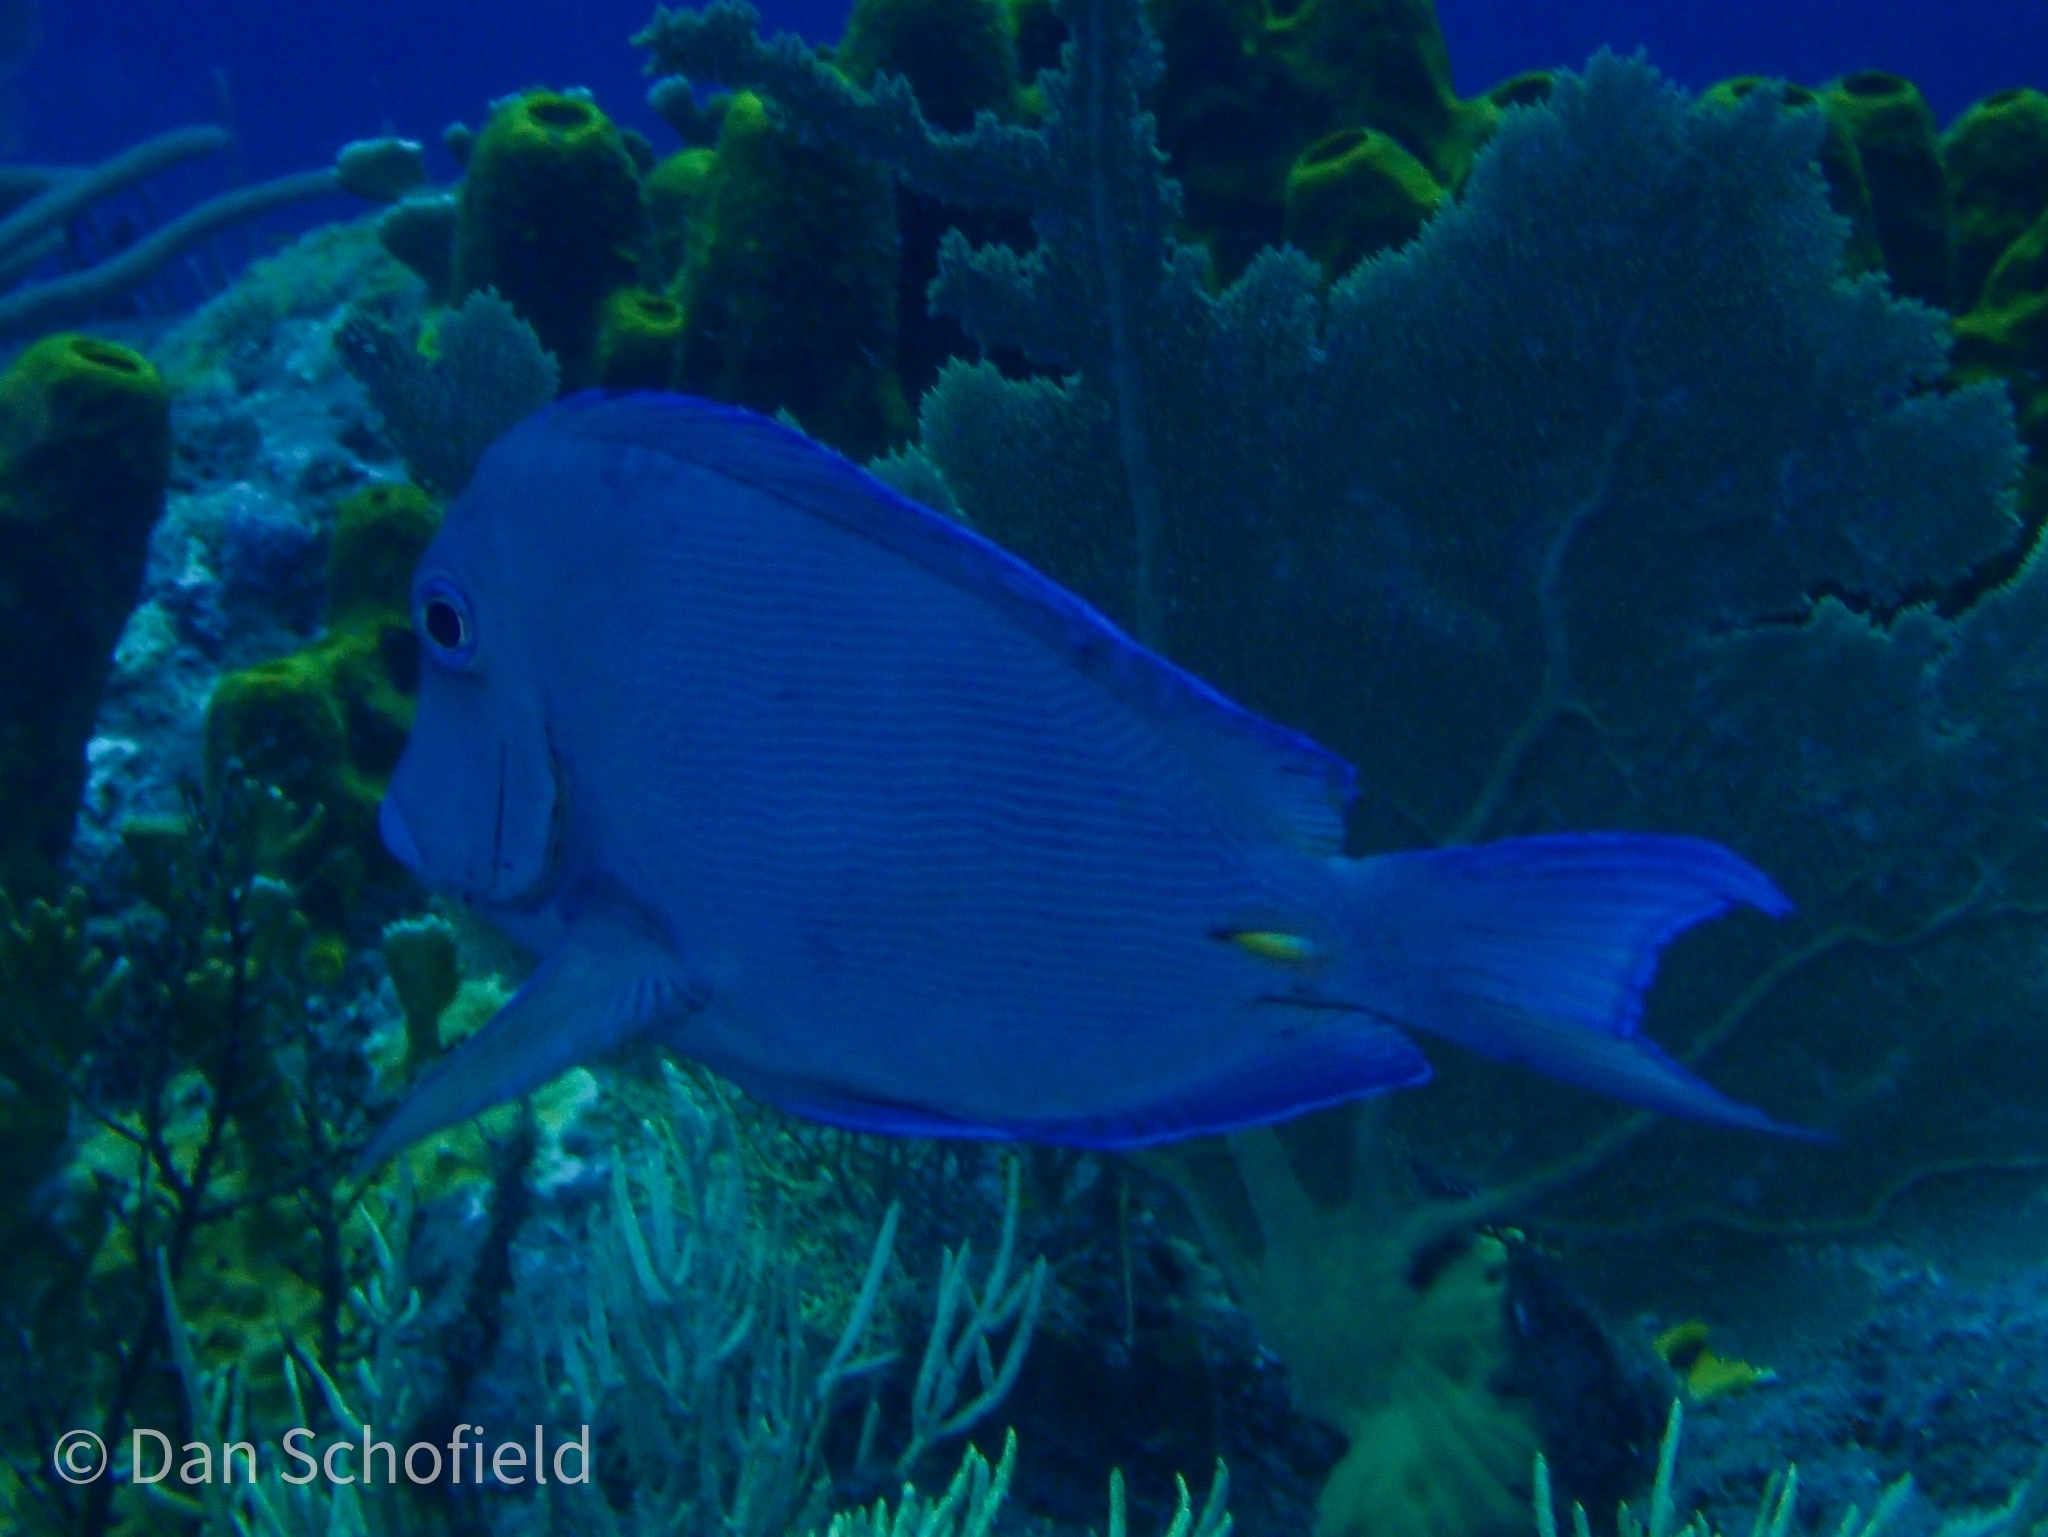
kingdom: Animalia
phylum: Chordata
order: Perciformes
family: Acanthuridae
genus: Acanthurus
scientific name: Acanthurus coeruleus
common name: Blue tang
